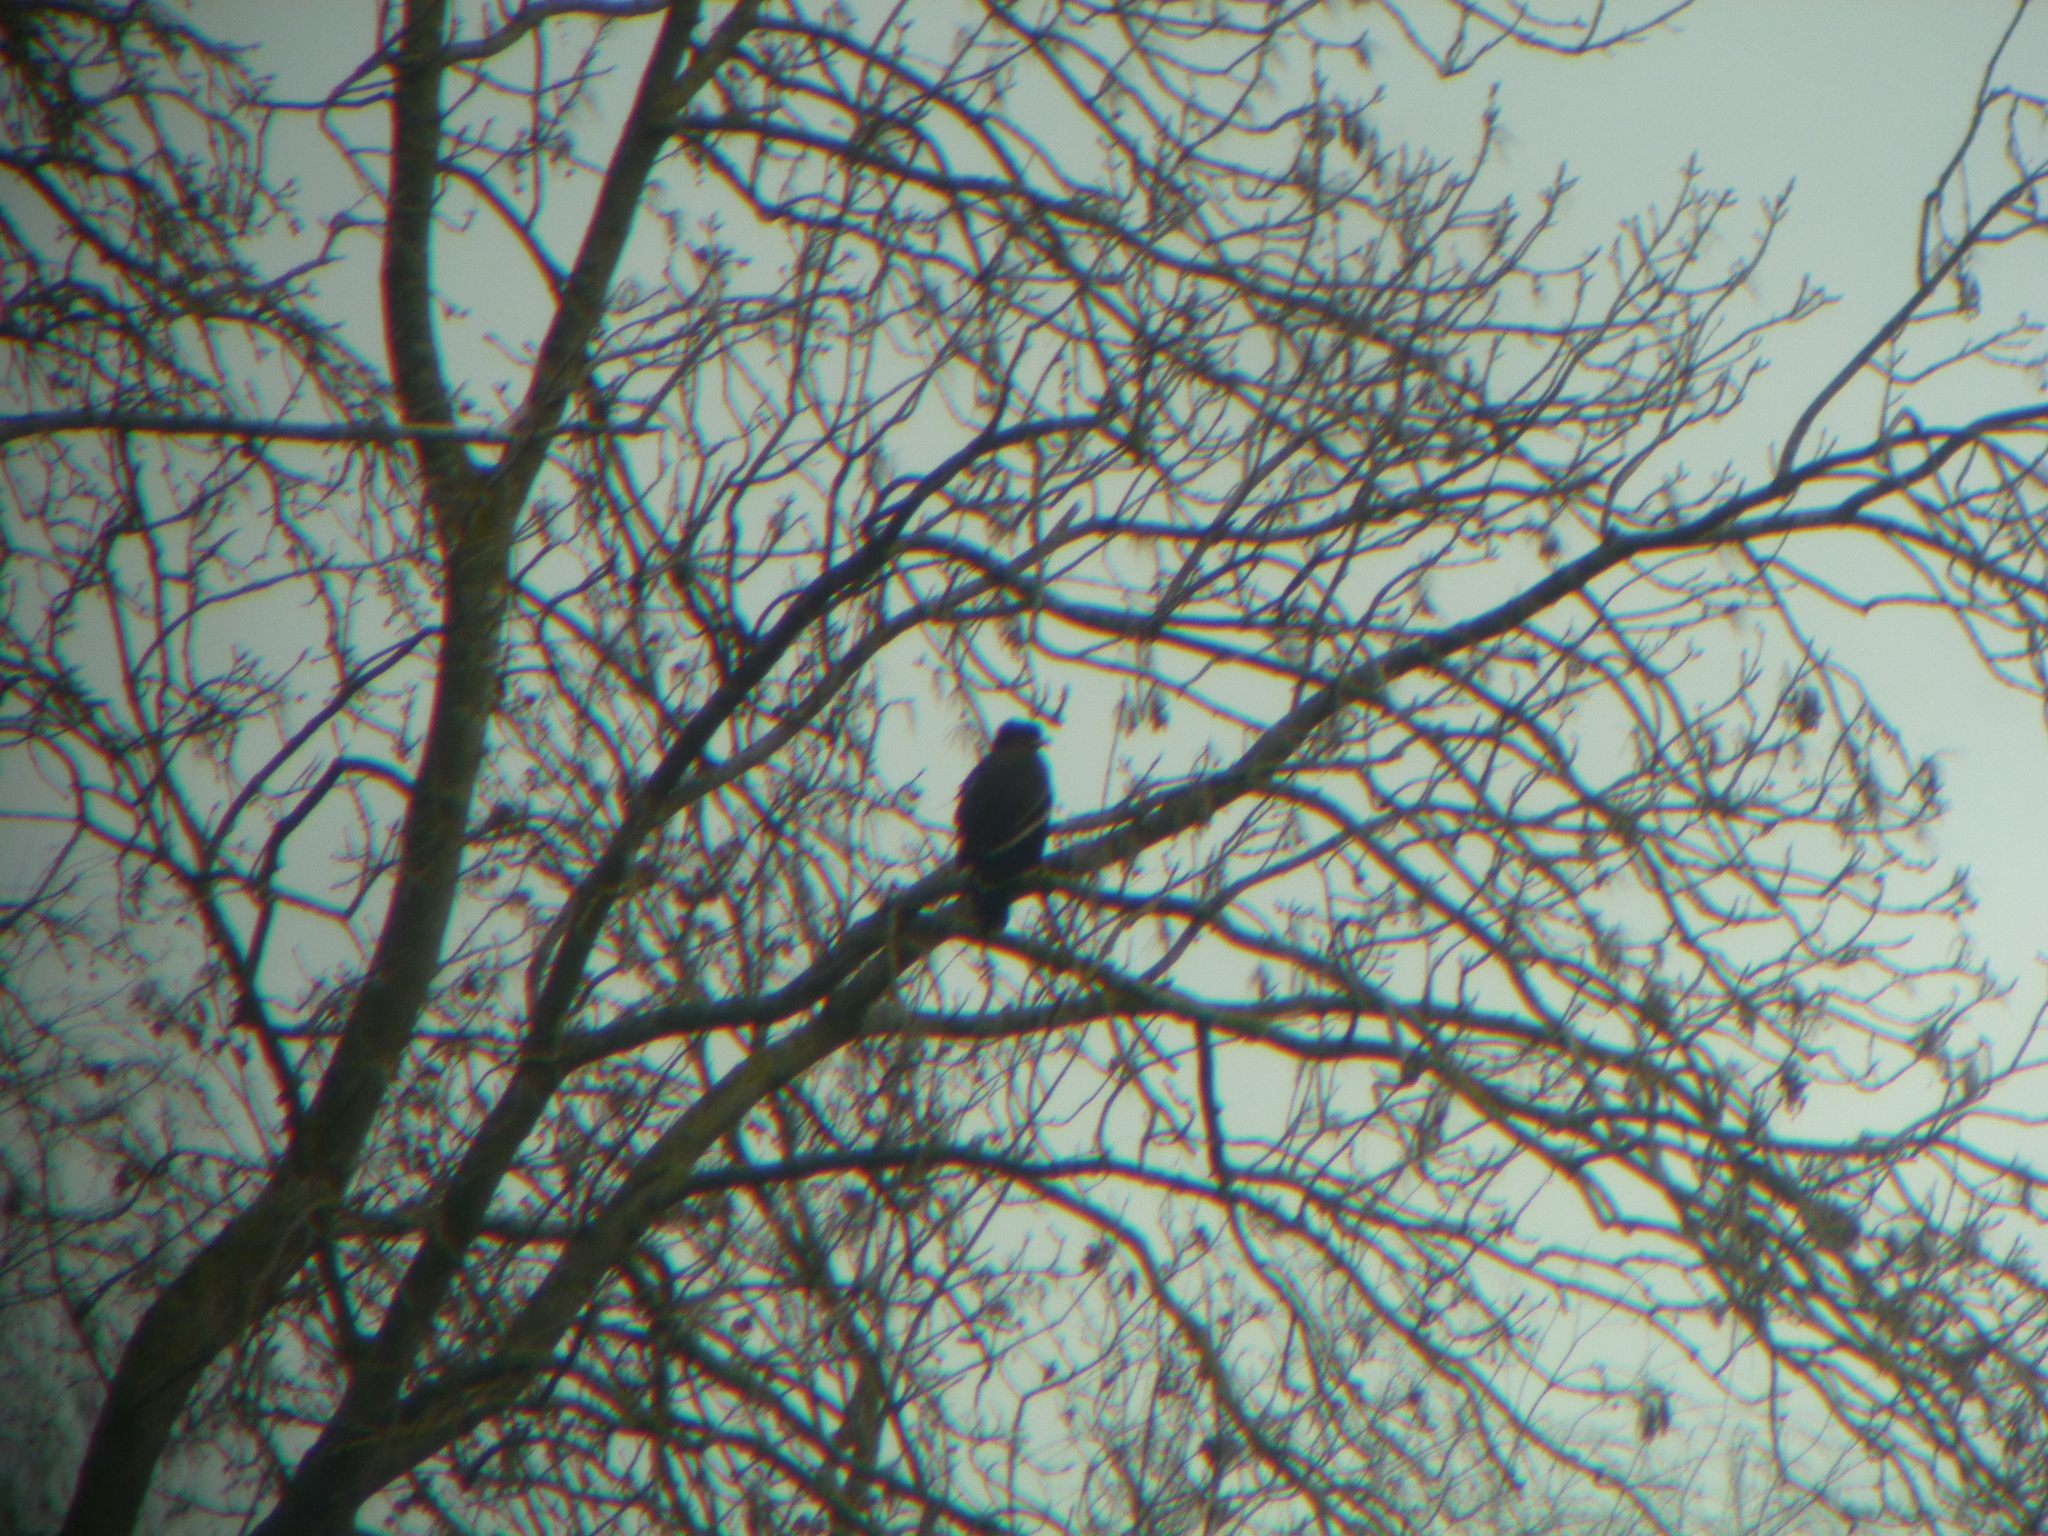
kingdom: Animalia
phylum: Chordata
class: Aves
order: Accipitriformes
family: Accipitridae
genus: Aquila
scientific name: Aquila clanga
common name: Greater spotted eagle
